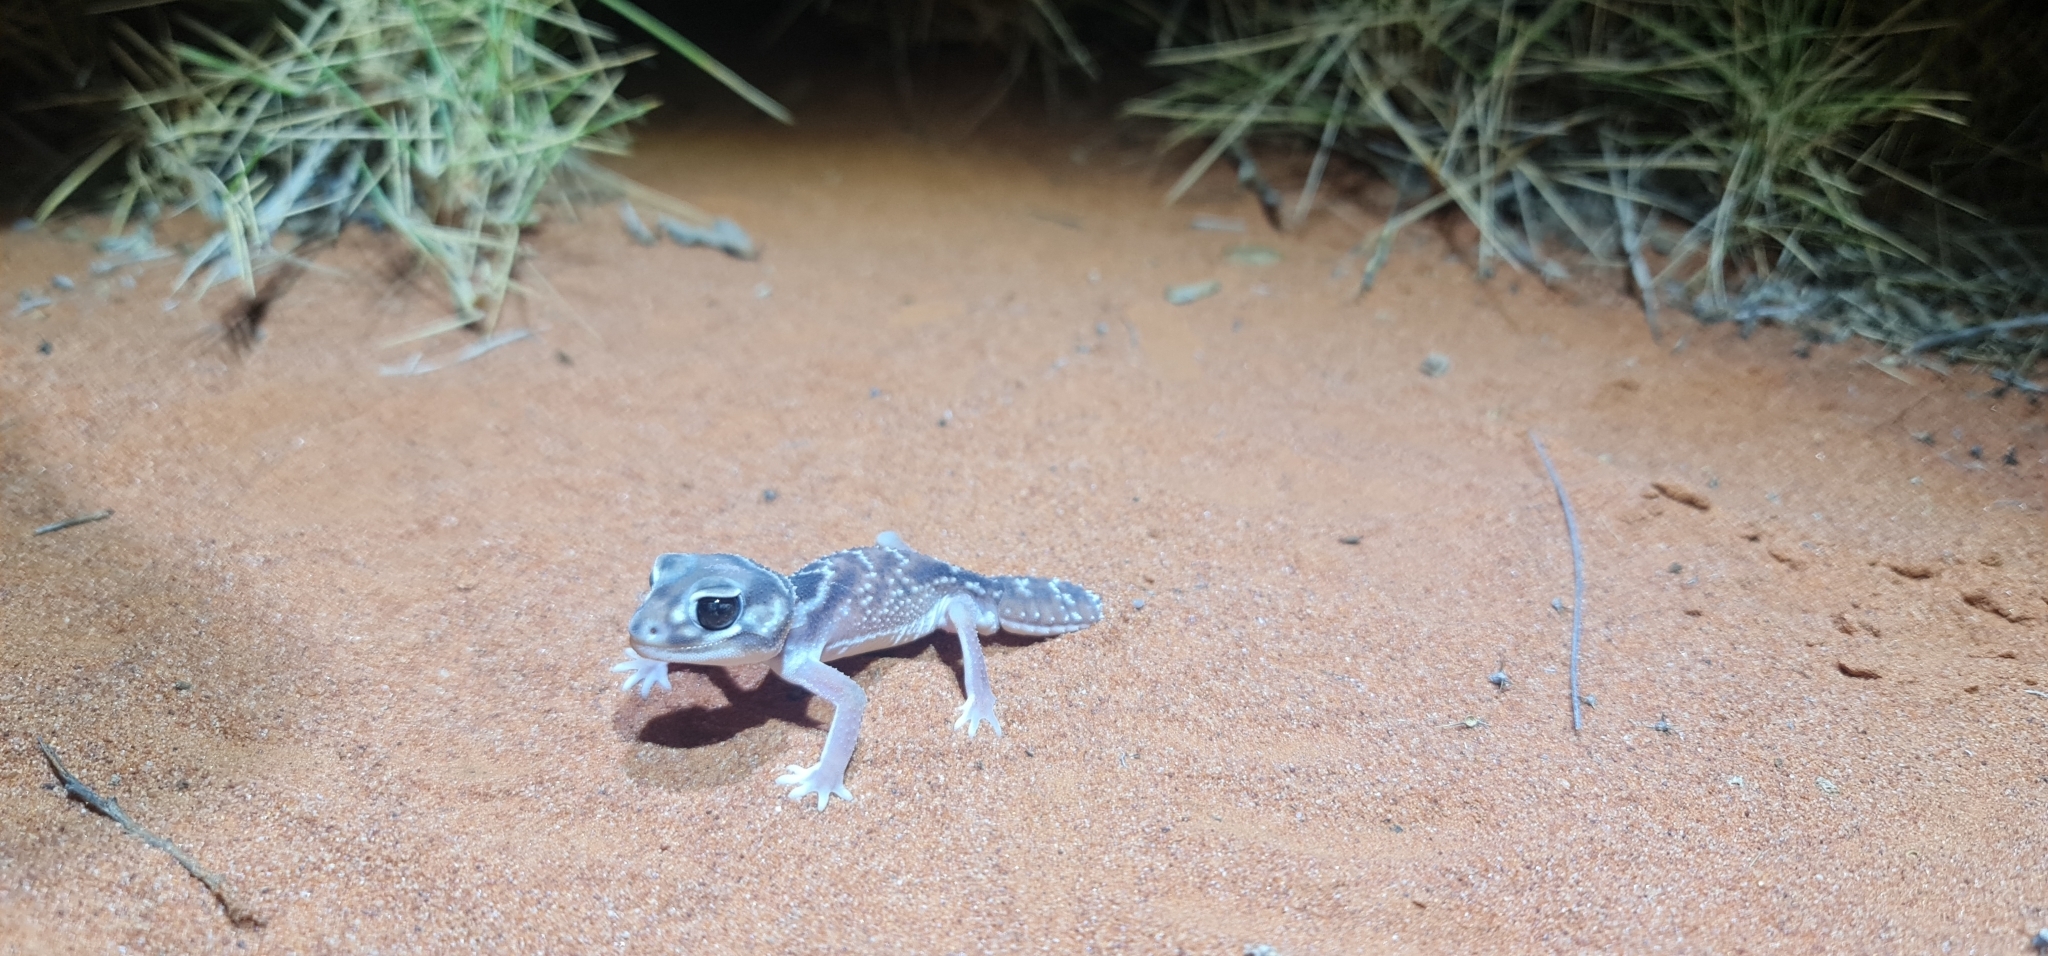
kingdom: Animalia
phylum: Chordata
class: Squamata
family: Carphodactylidae
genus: Nephrurus
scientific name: Nephrurus levis
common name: Smooth knob-tailed gecko
